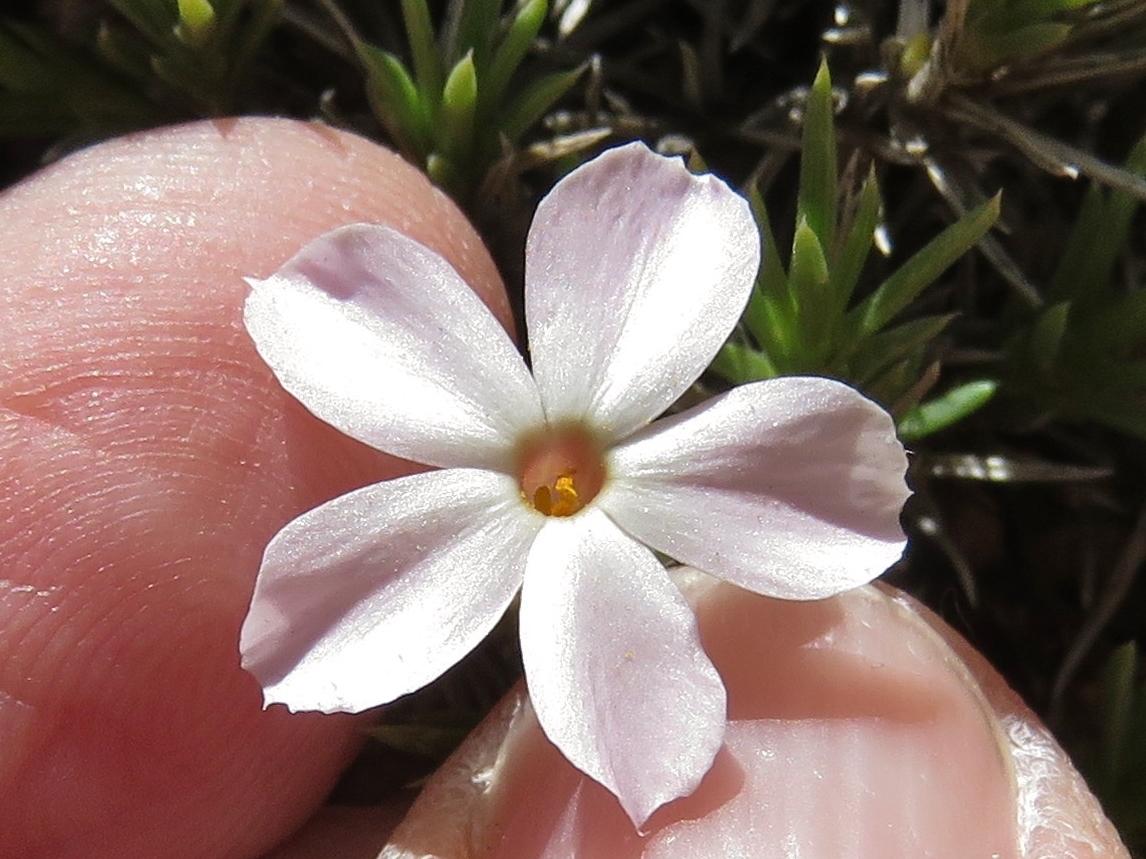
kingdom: Plantae
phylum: Tracheophyta
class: Magnoliopsida
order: Ericales
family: Polemoniaceae
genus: Phlox
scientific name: Phlox austromontana
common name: Desert phlox
